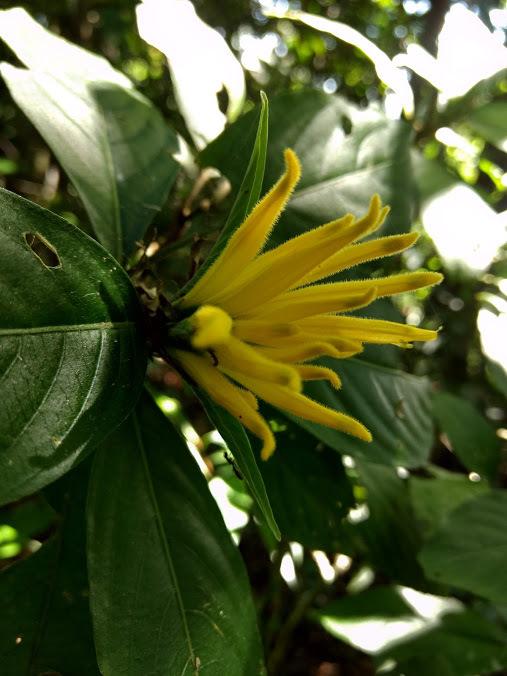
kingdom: Plantae
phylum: Tracheophyta
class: Magnoliopsida
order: Lamiales
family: Acanthaceae
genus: Justicia
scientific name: Justicia aurea
